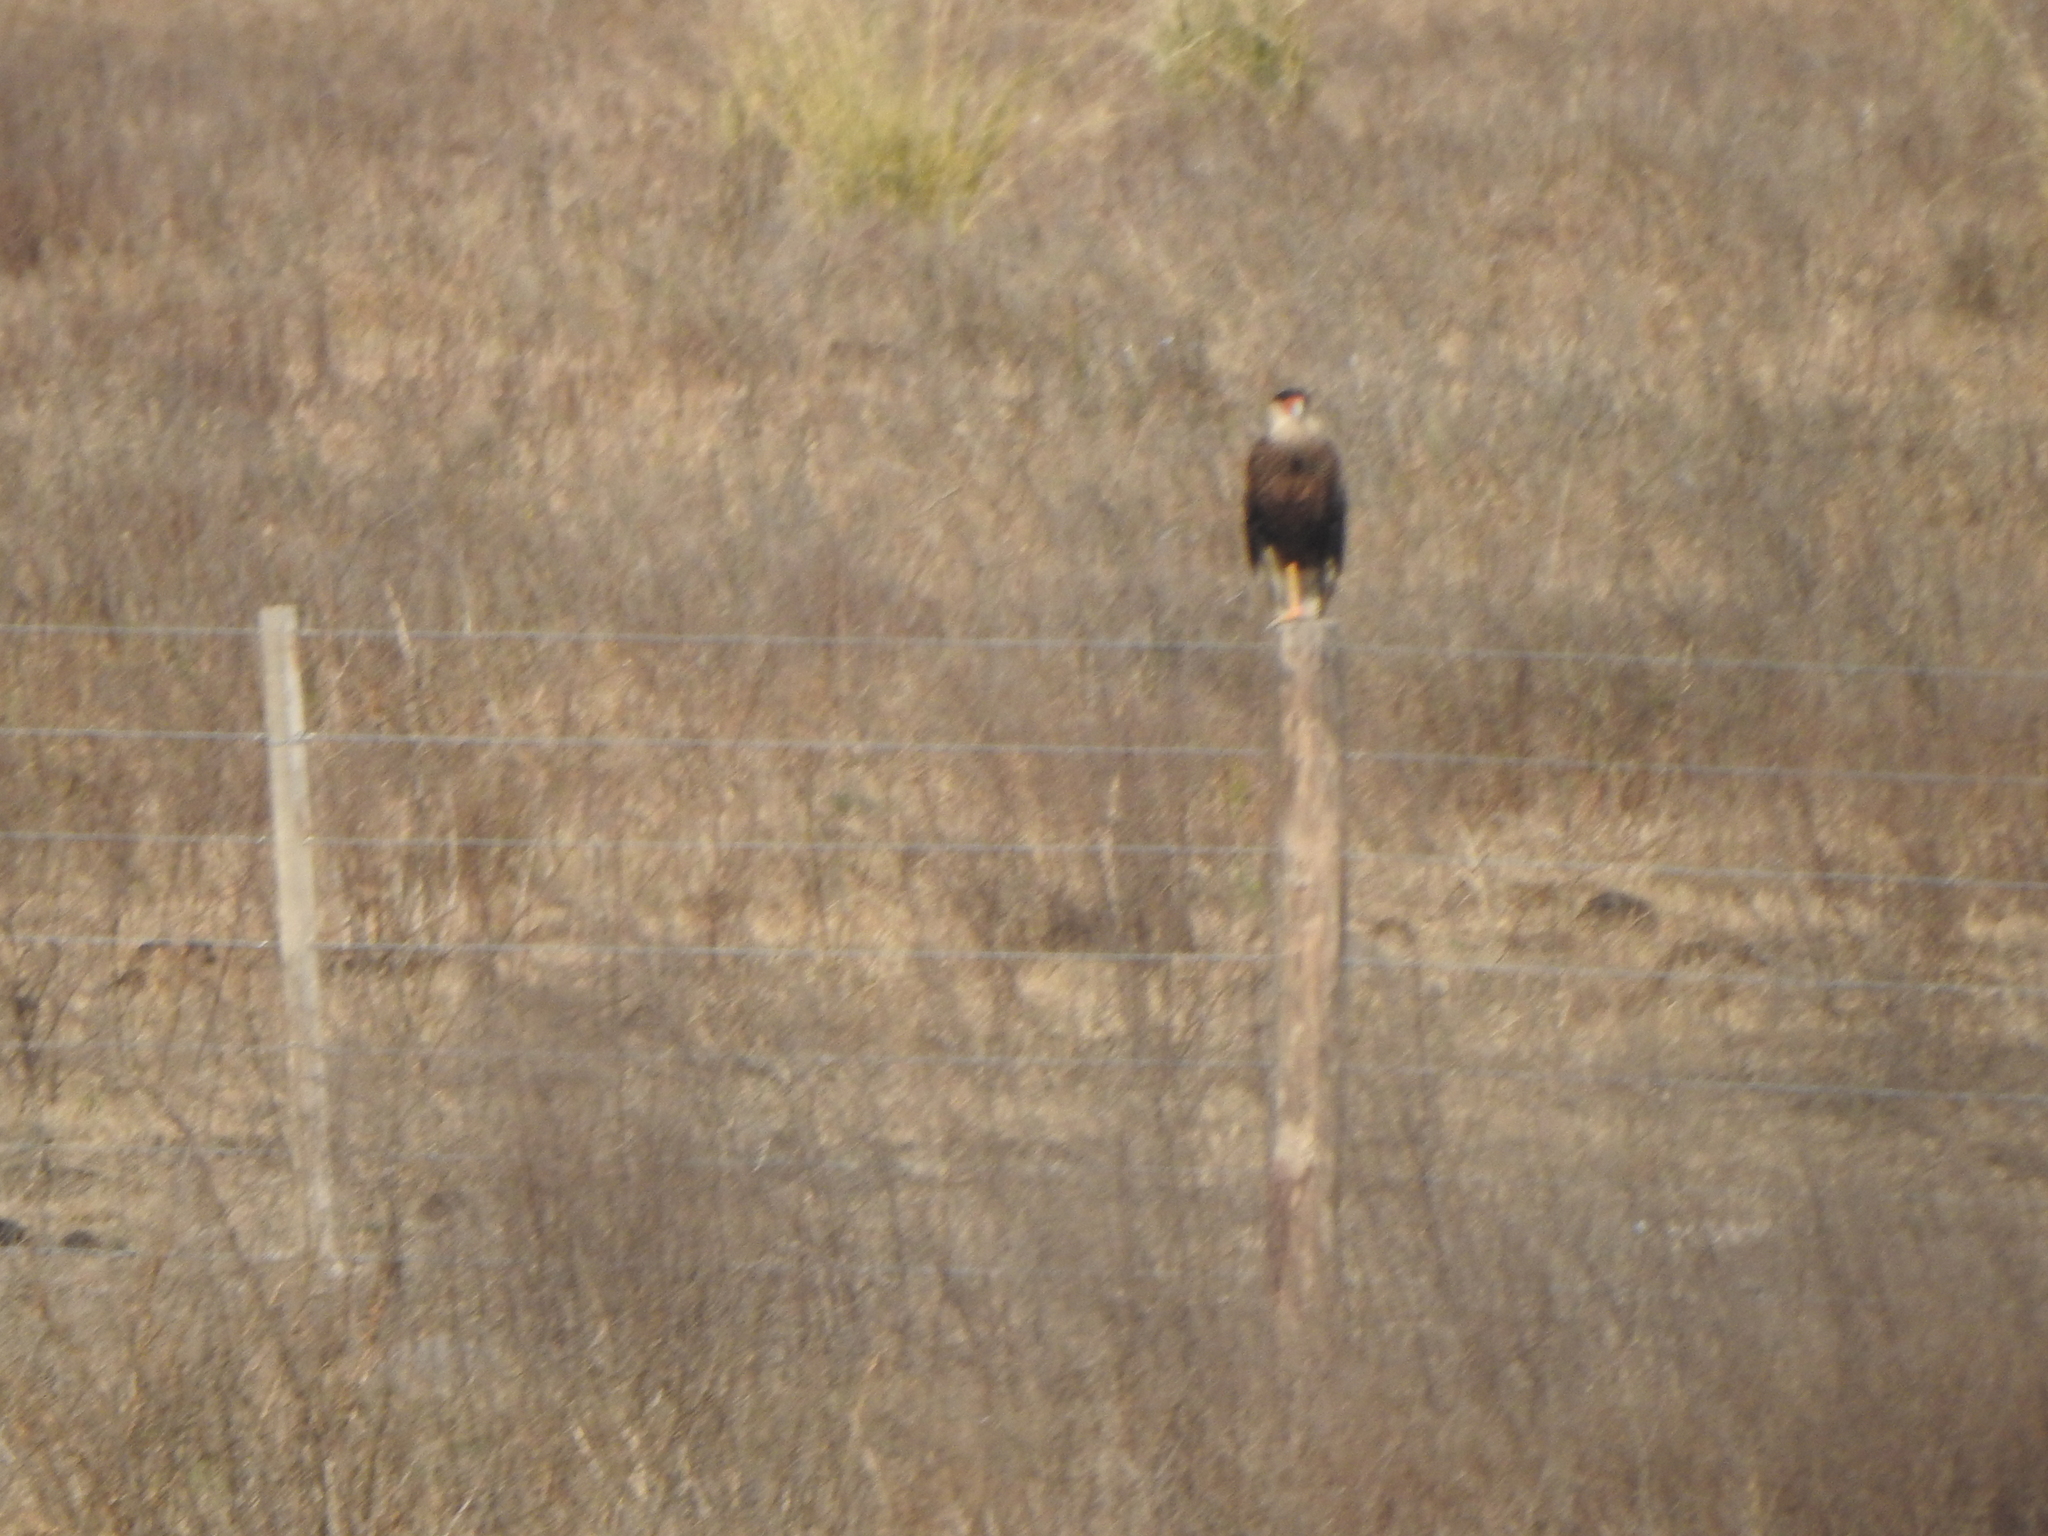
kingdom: Animalia
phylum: Chordata
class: Aves
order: Falconiformes
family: Falconidae
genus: Caracara
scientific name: Caracara plancus
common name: Southern caracara
